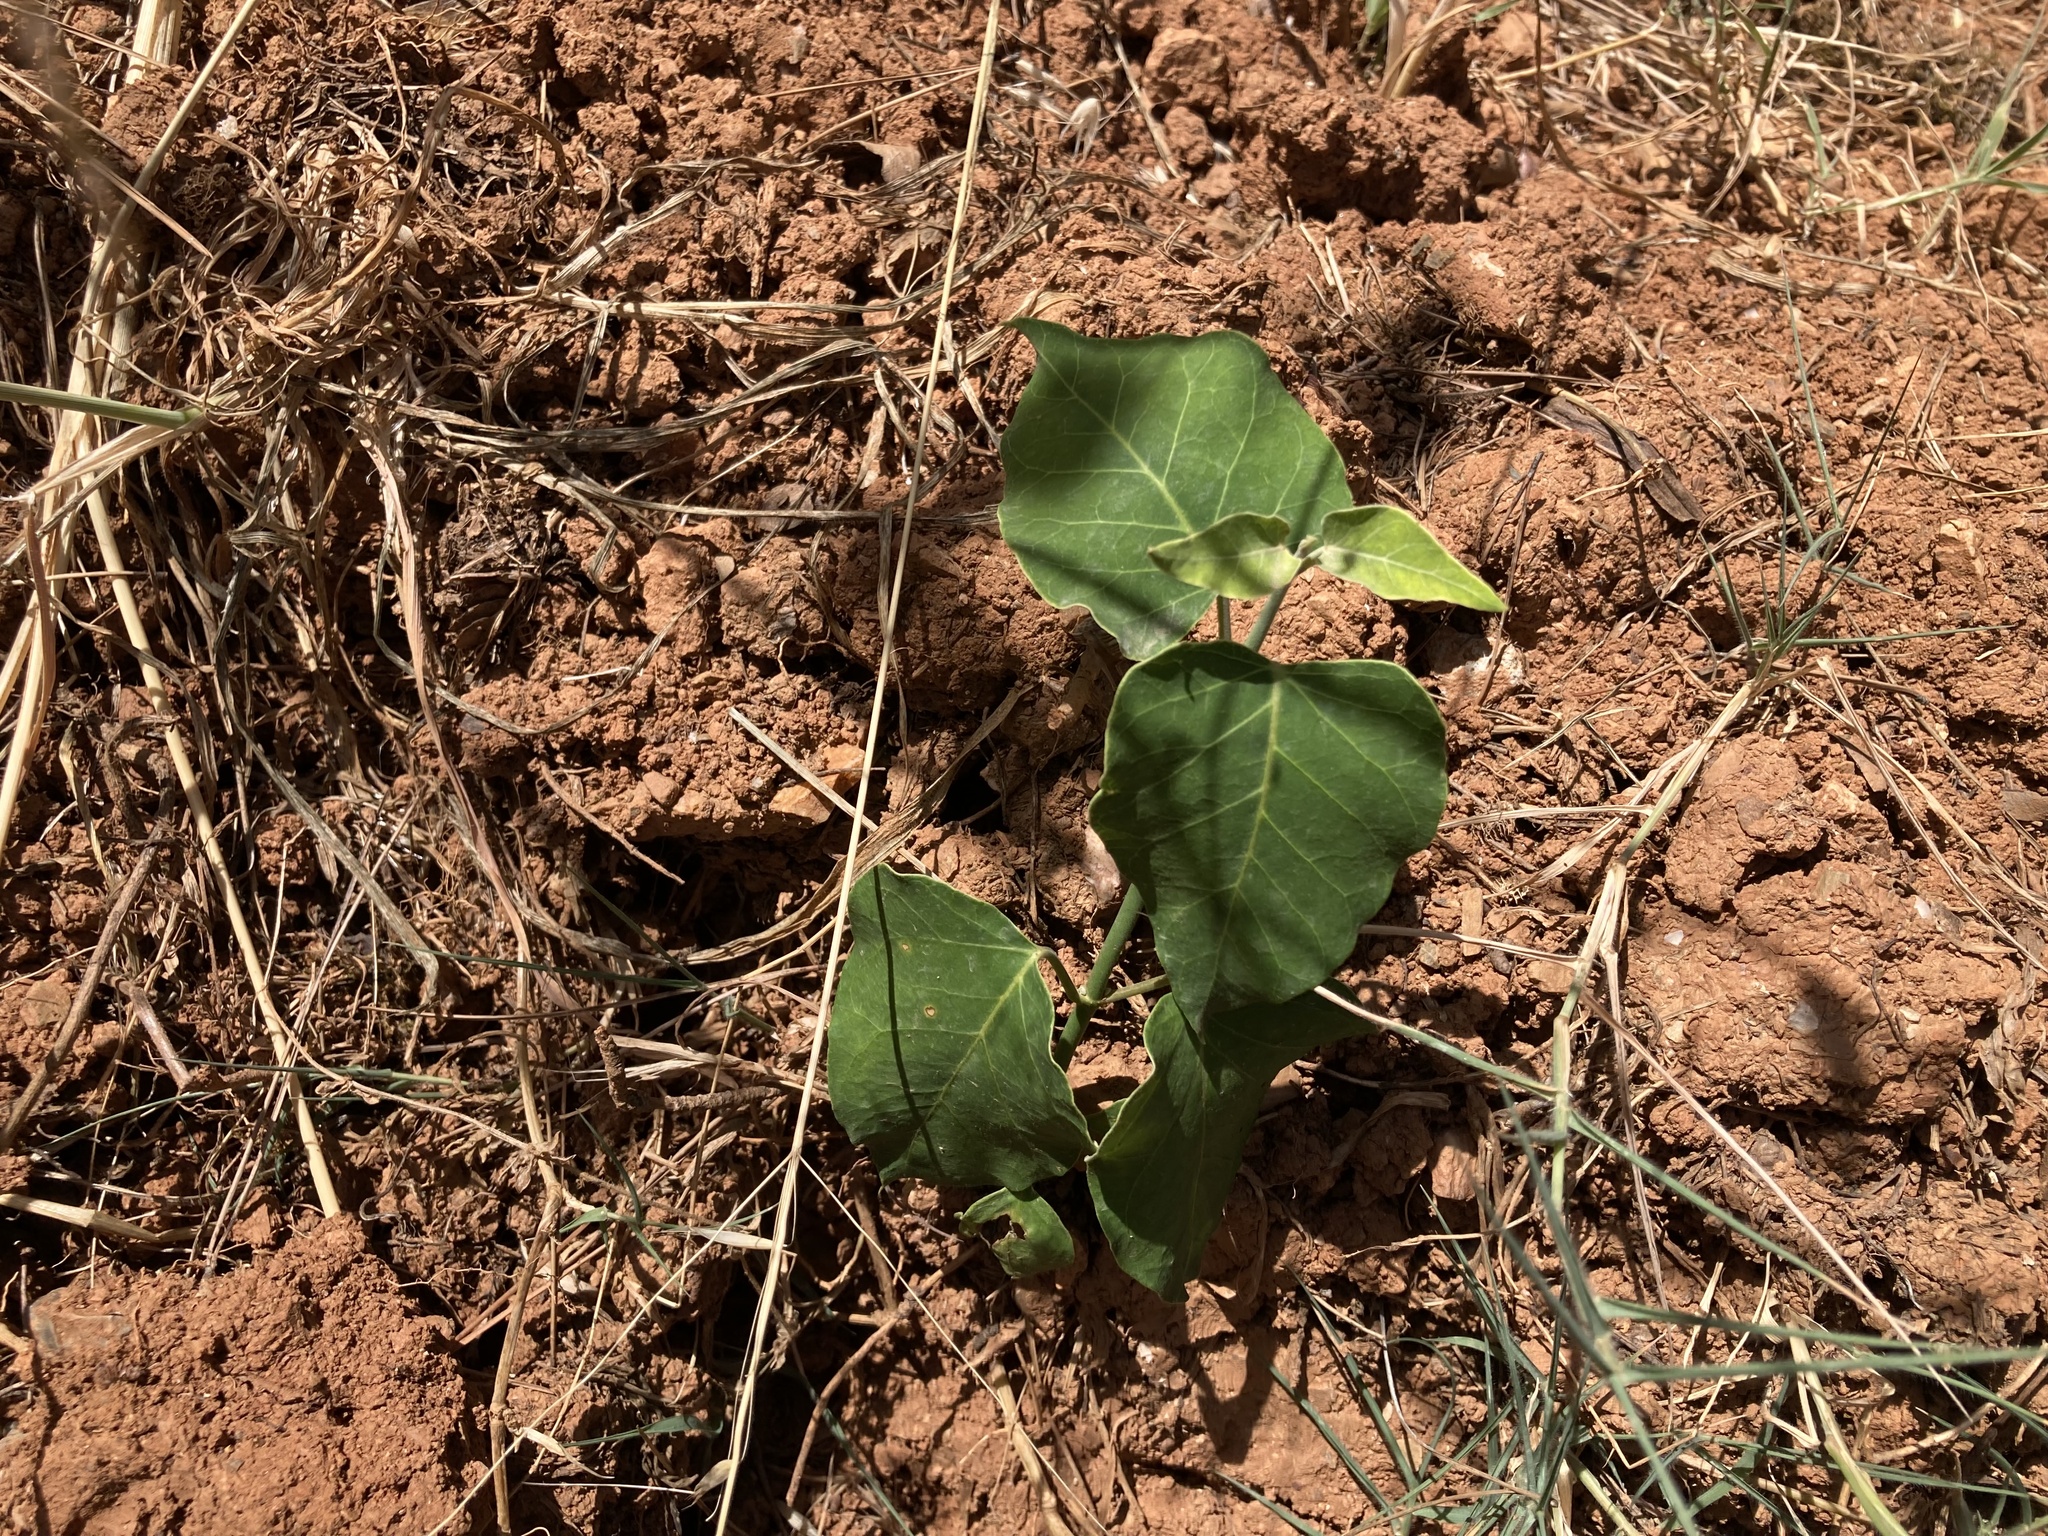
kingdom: Plantae
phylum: Tracheophyta
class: Magnoliopsida
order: Gentianales
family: Apocynaceae
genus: Araujia
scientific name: Araujia sericifera
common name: White bladderflower
